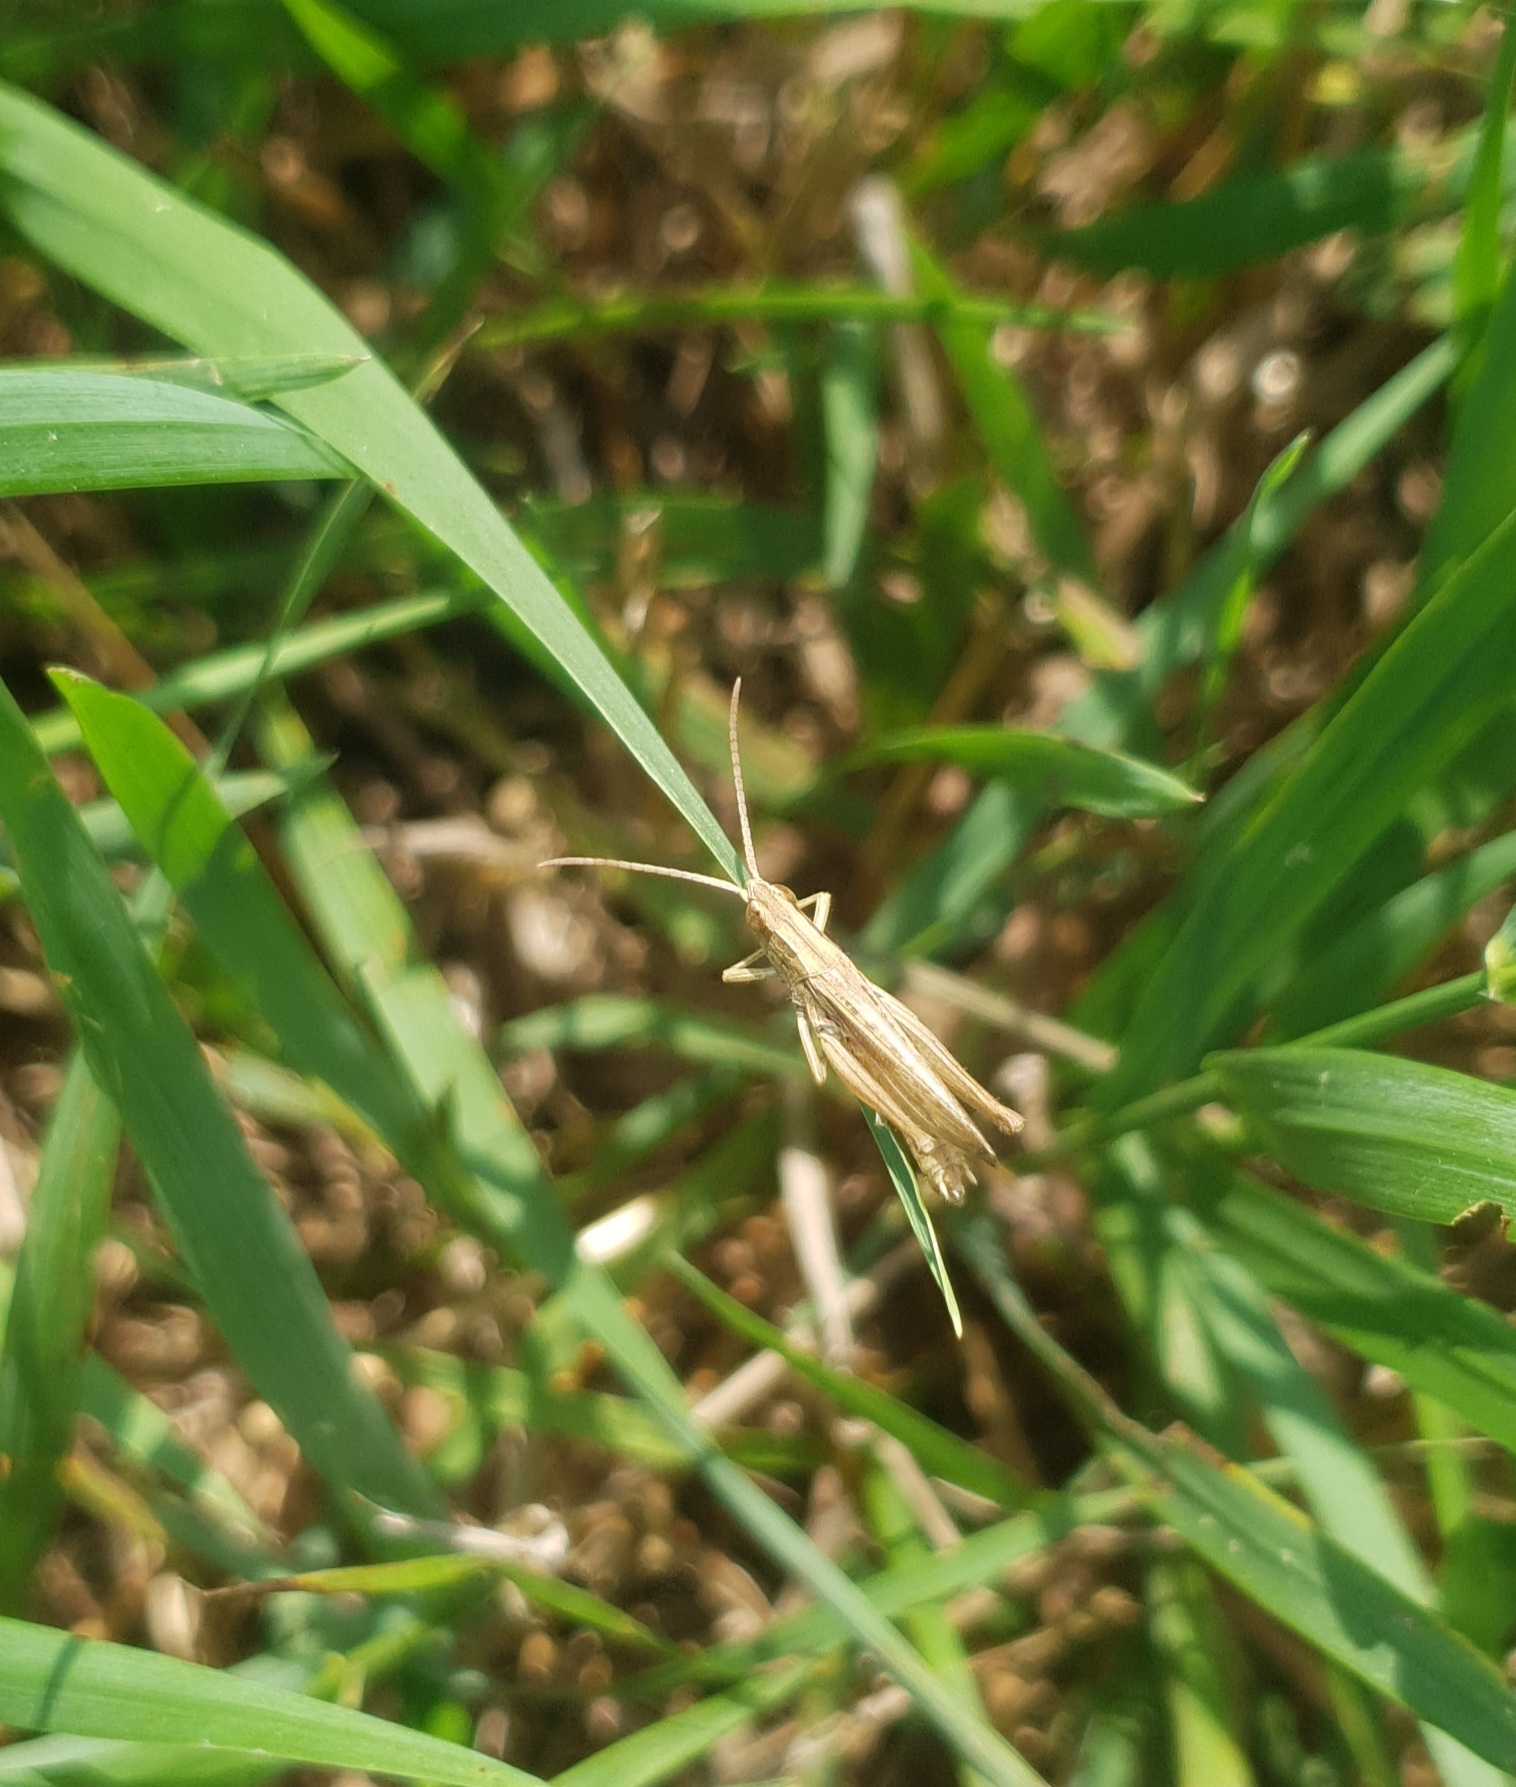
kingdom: Animalia
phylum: Arthropoda
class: Insecta
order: Orthoptera
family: Acrididae
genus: Chorthippus
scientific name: Chorthippus albomarginatus
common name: Lesser marsh grasshopper
